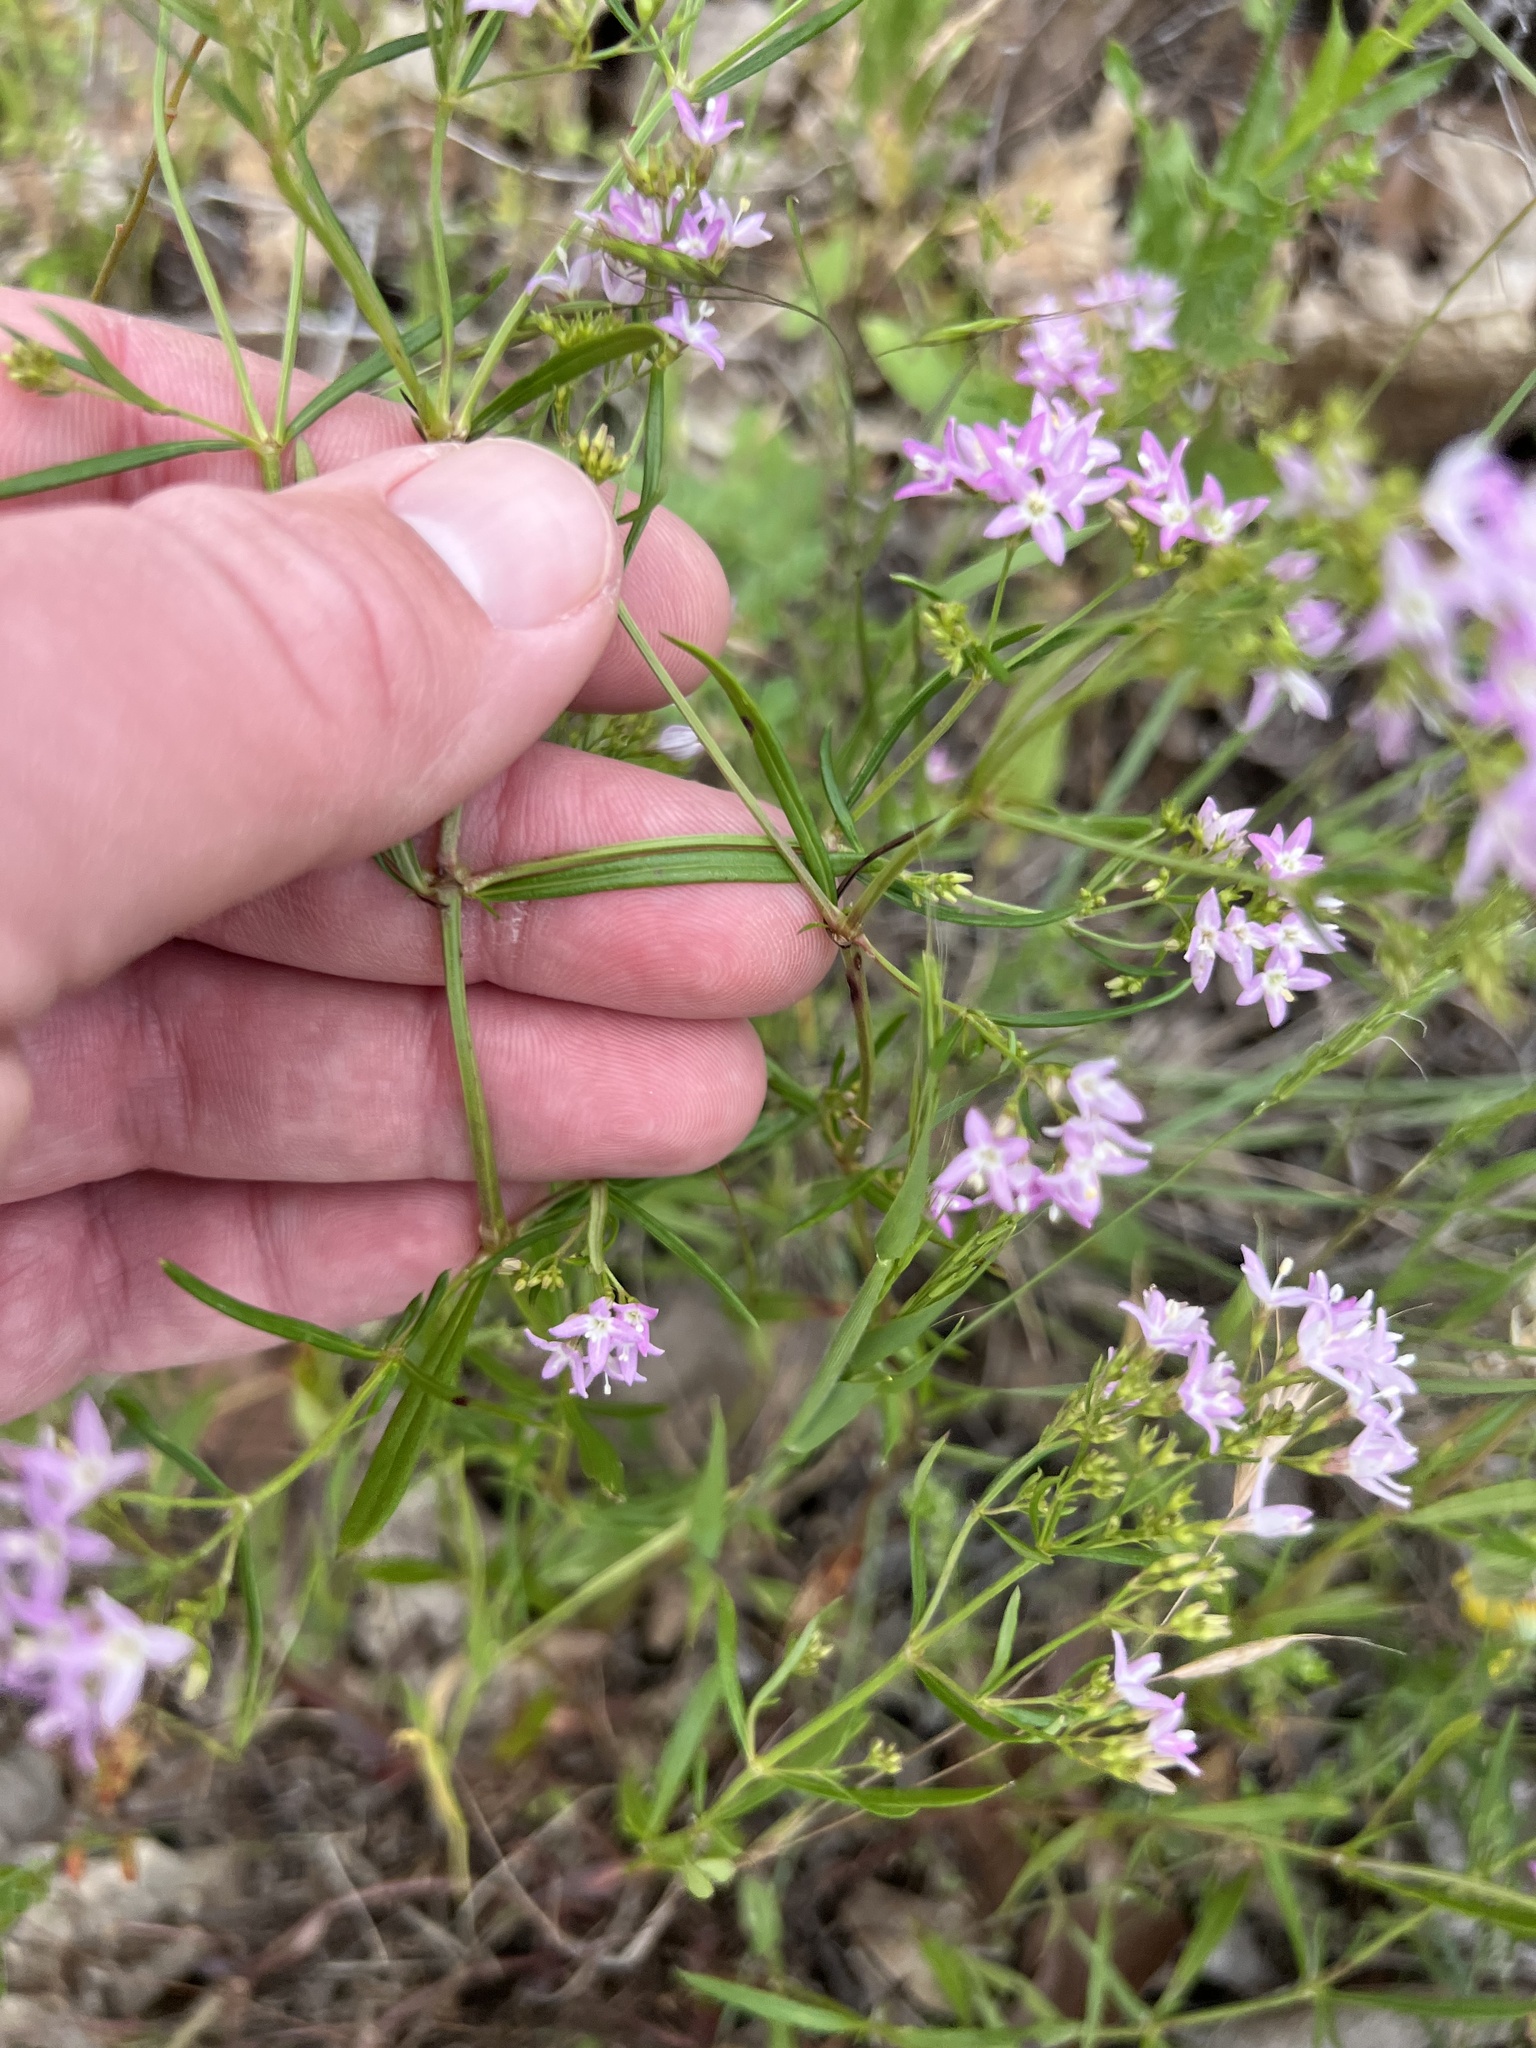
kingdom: Plantae
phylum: Tracheophyta
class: Magnoliopsida
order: Gentianales
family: Rubiaceae
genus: Stenaria
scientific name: Stenaria nigricans
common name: Diamondflowers
